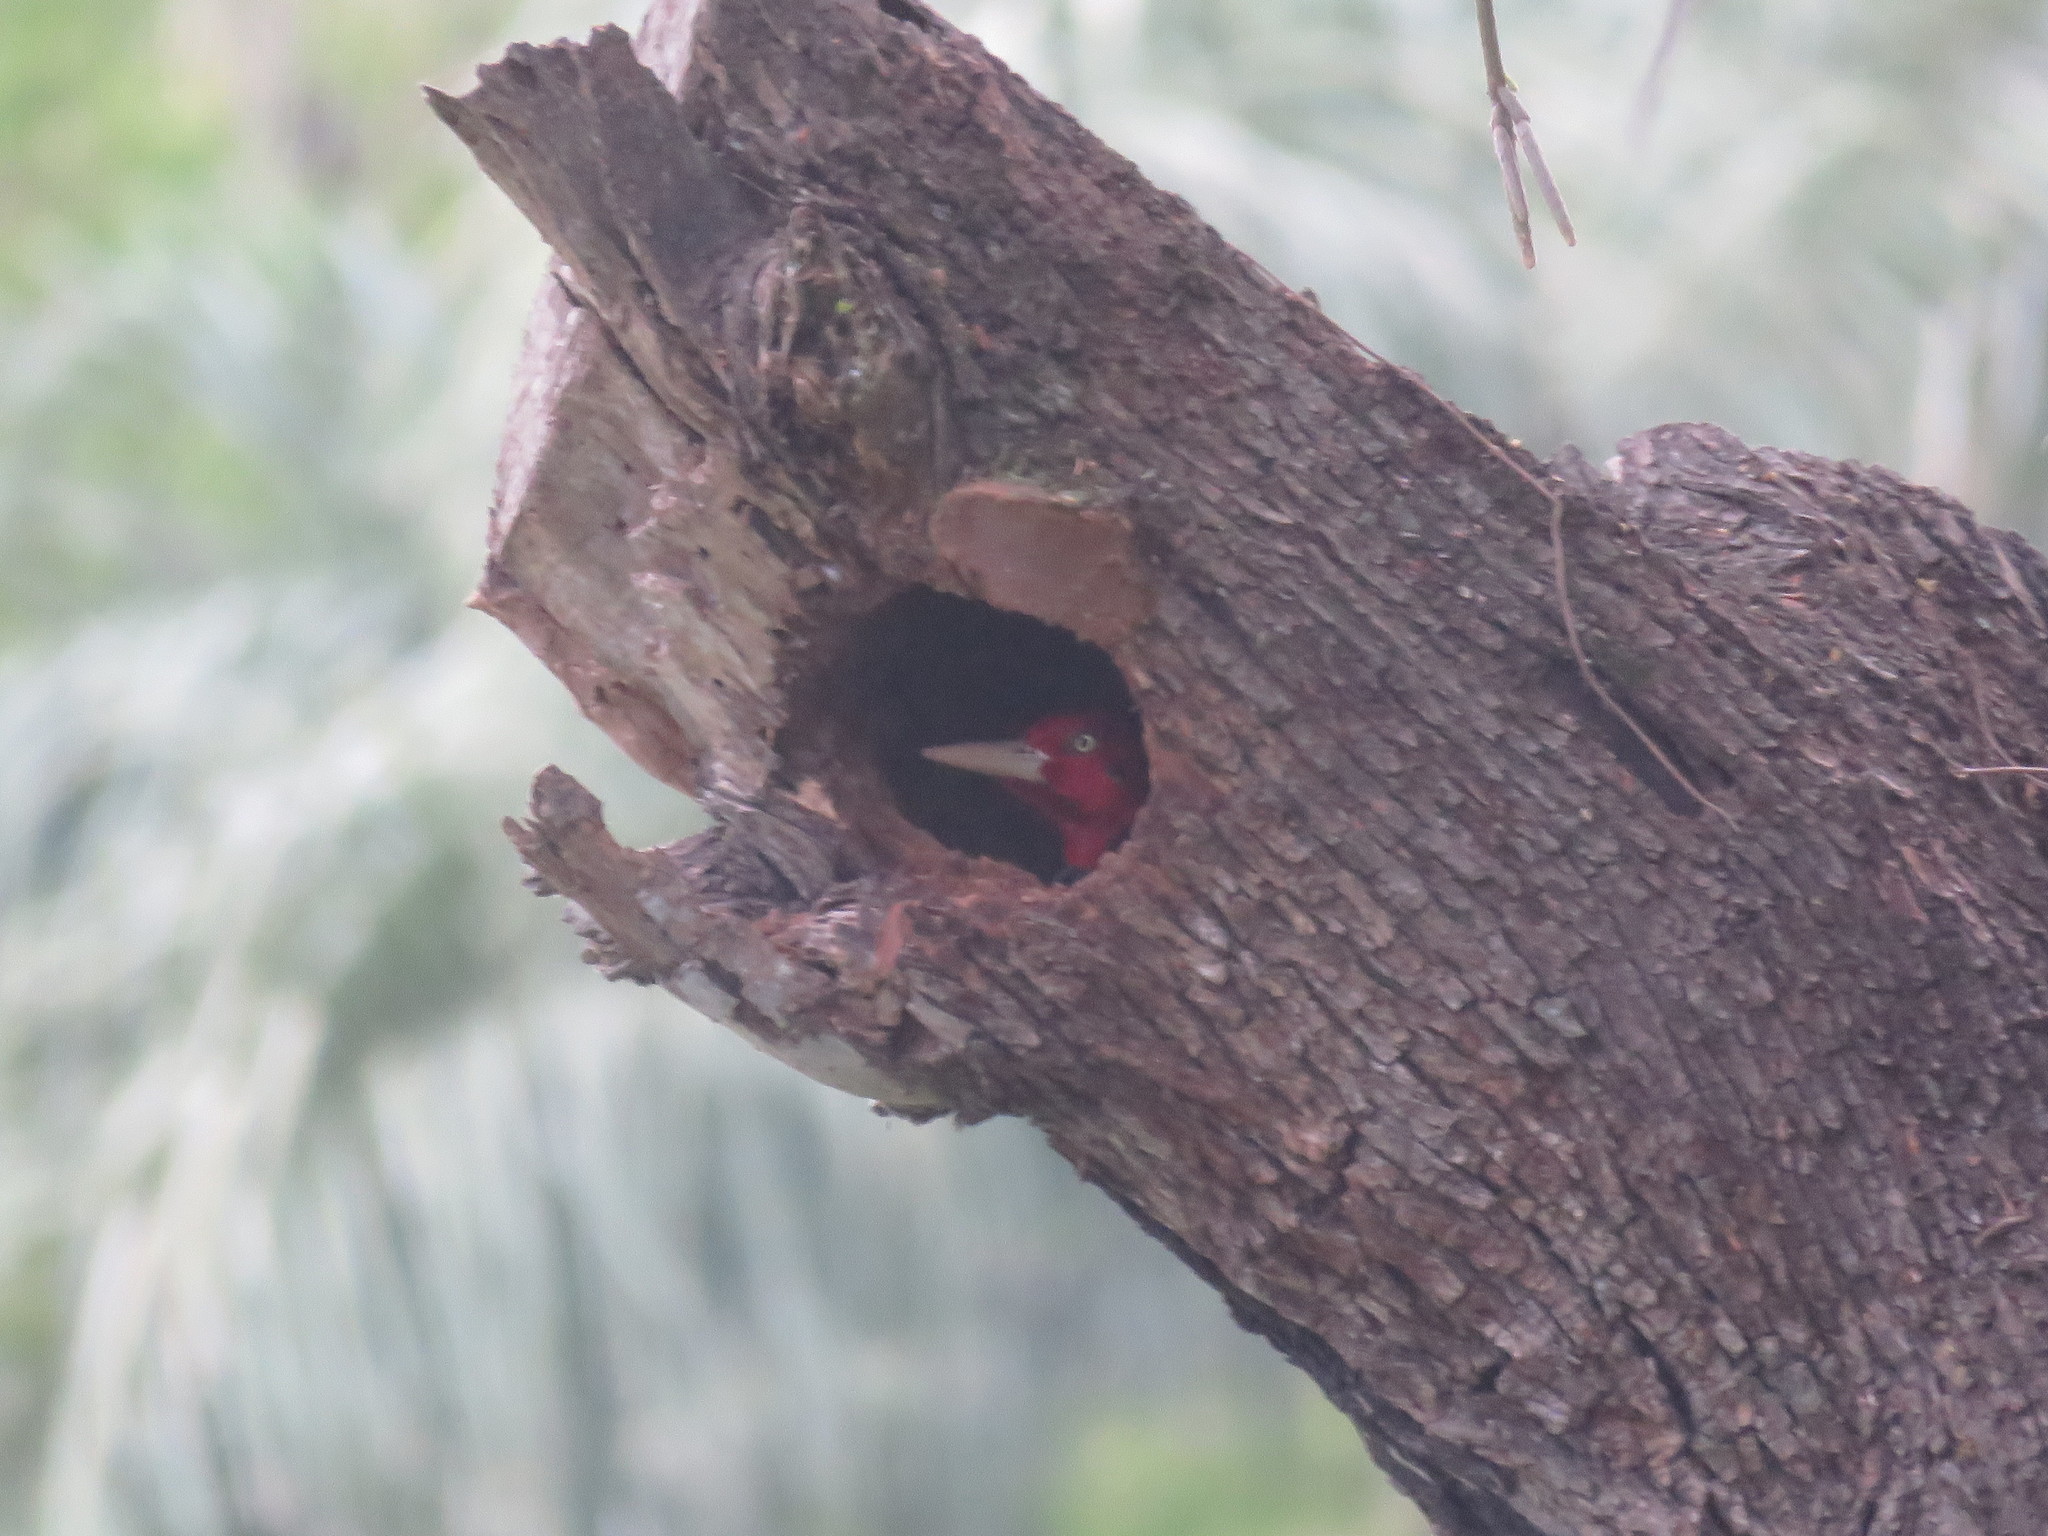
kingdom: Animalia
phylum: Chordata
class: Aves
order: Piciformes
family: Picidae
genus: Campephilus
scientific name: Campephilus leucopogon
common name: Cream-backed woodpecker
